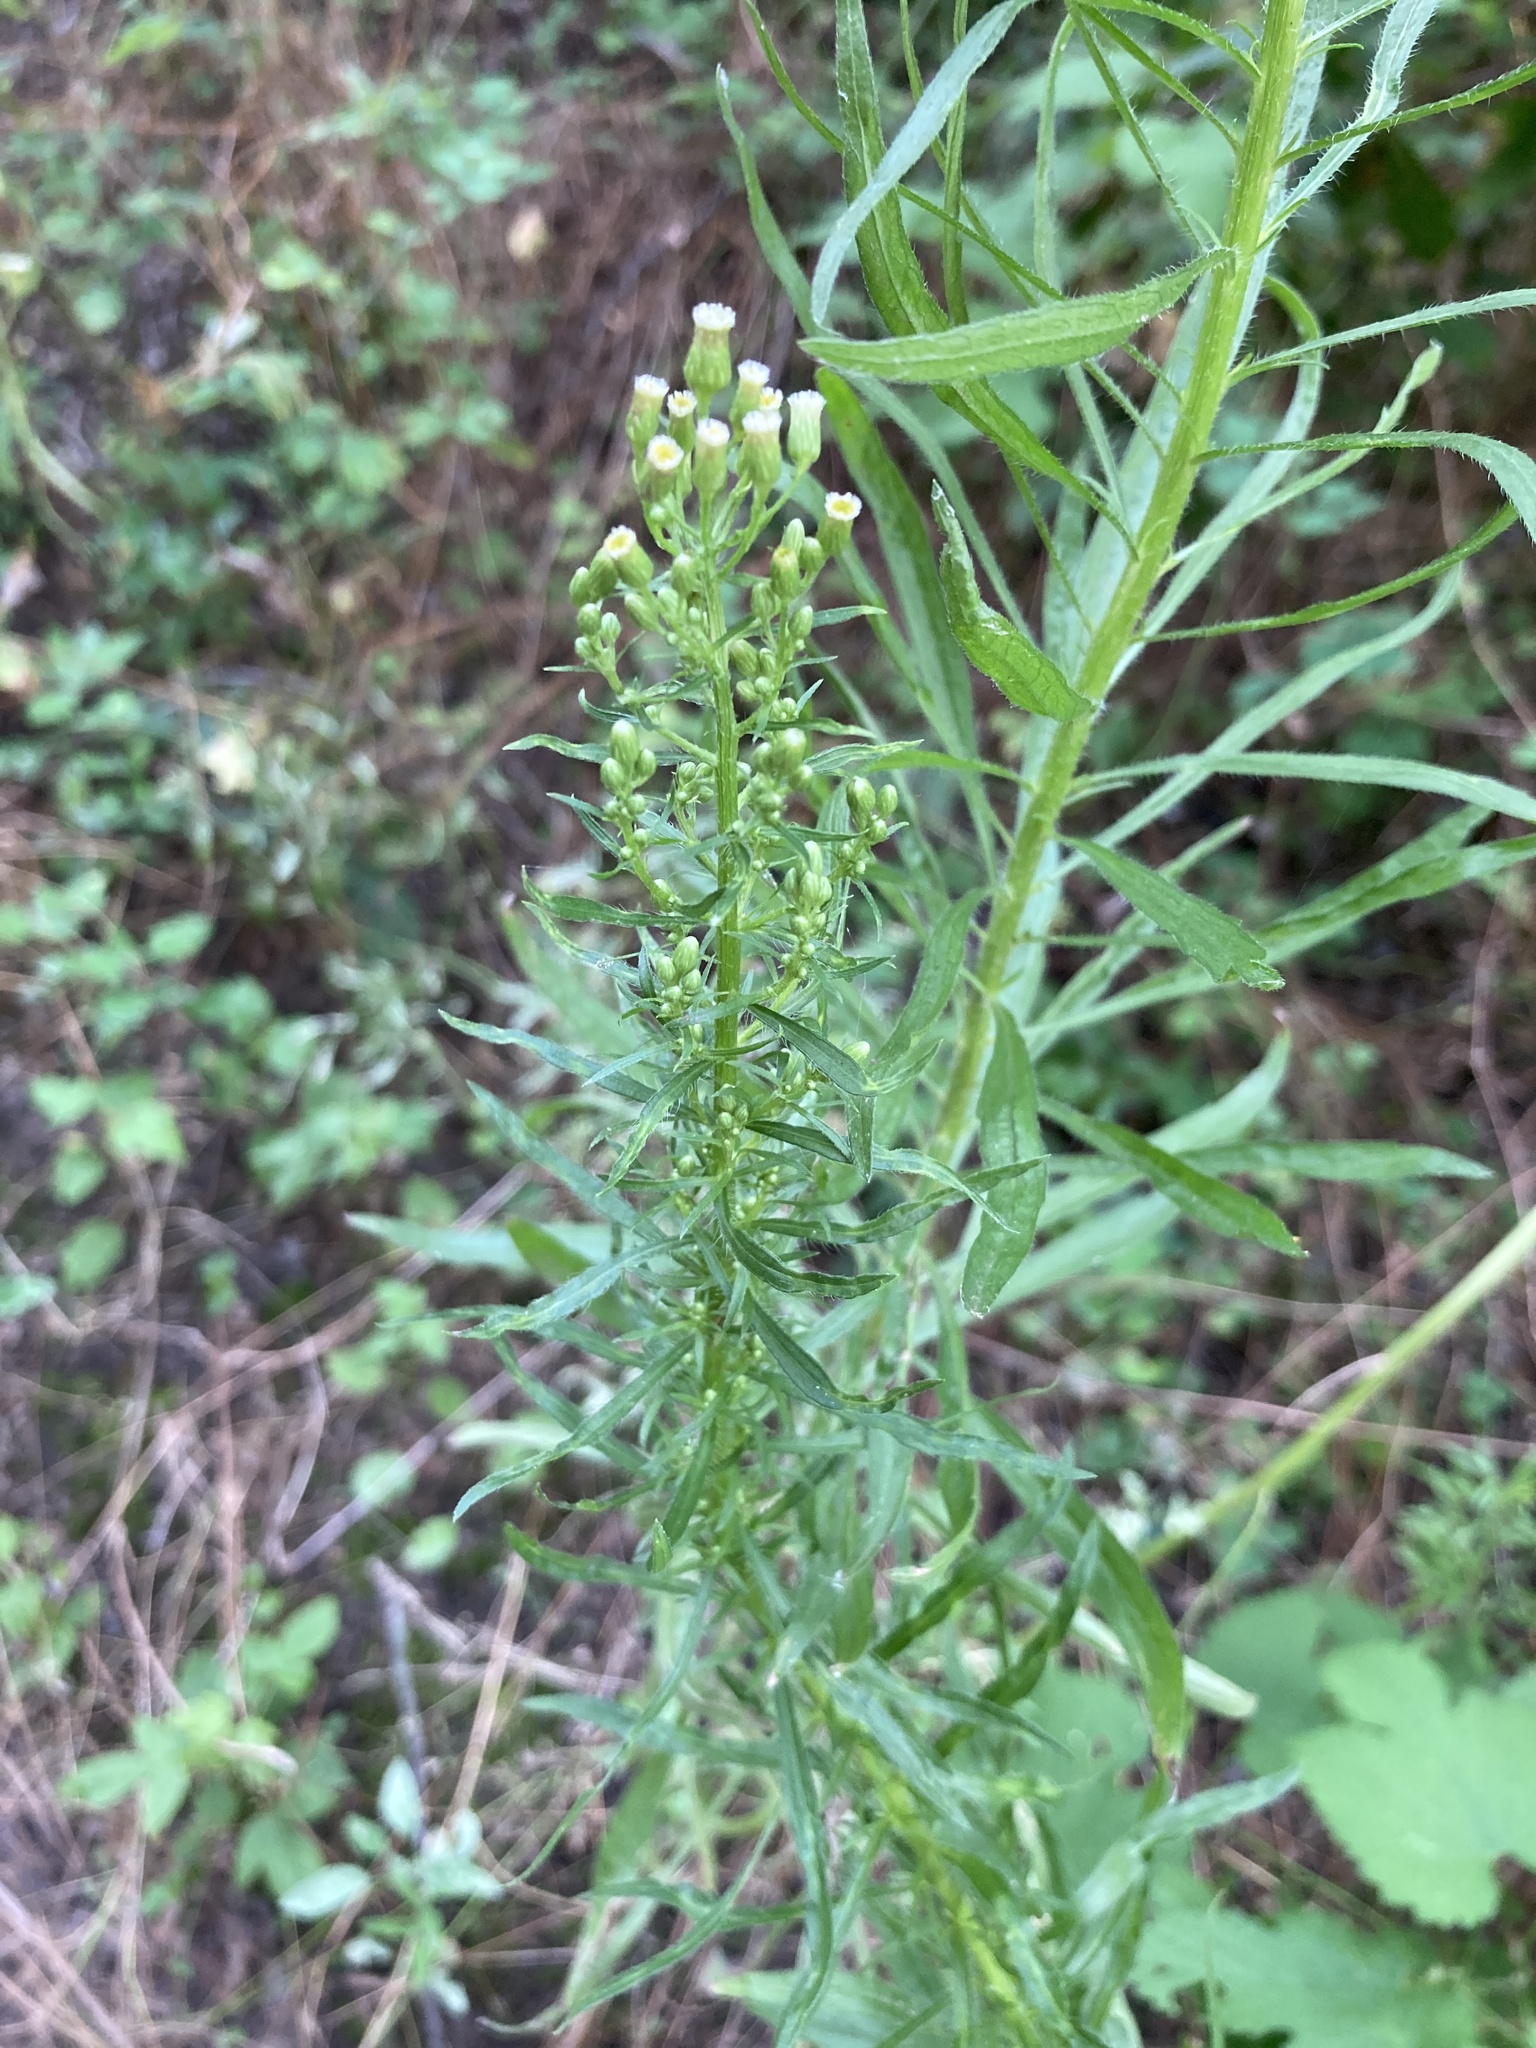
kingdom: Plantae
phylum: Tracheophyta
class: Magnoliopsida
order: Asterales
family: Asteraceae
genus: Erigeron
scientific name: Erigeron canadensis
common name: Canadian fleabane
